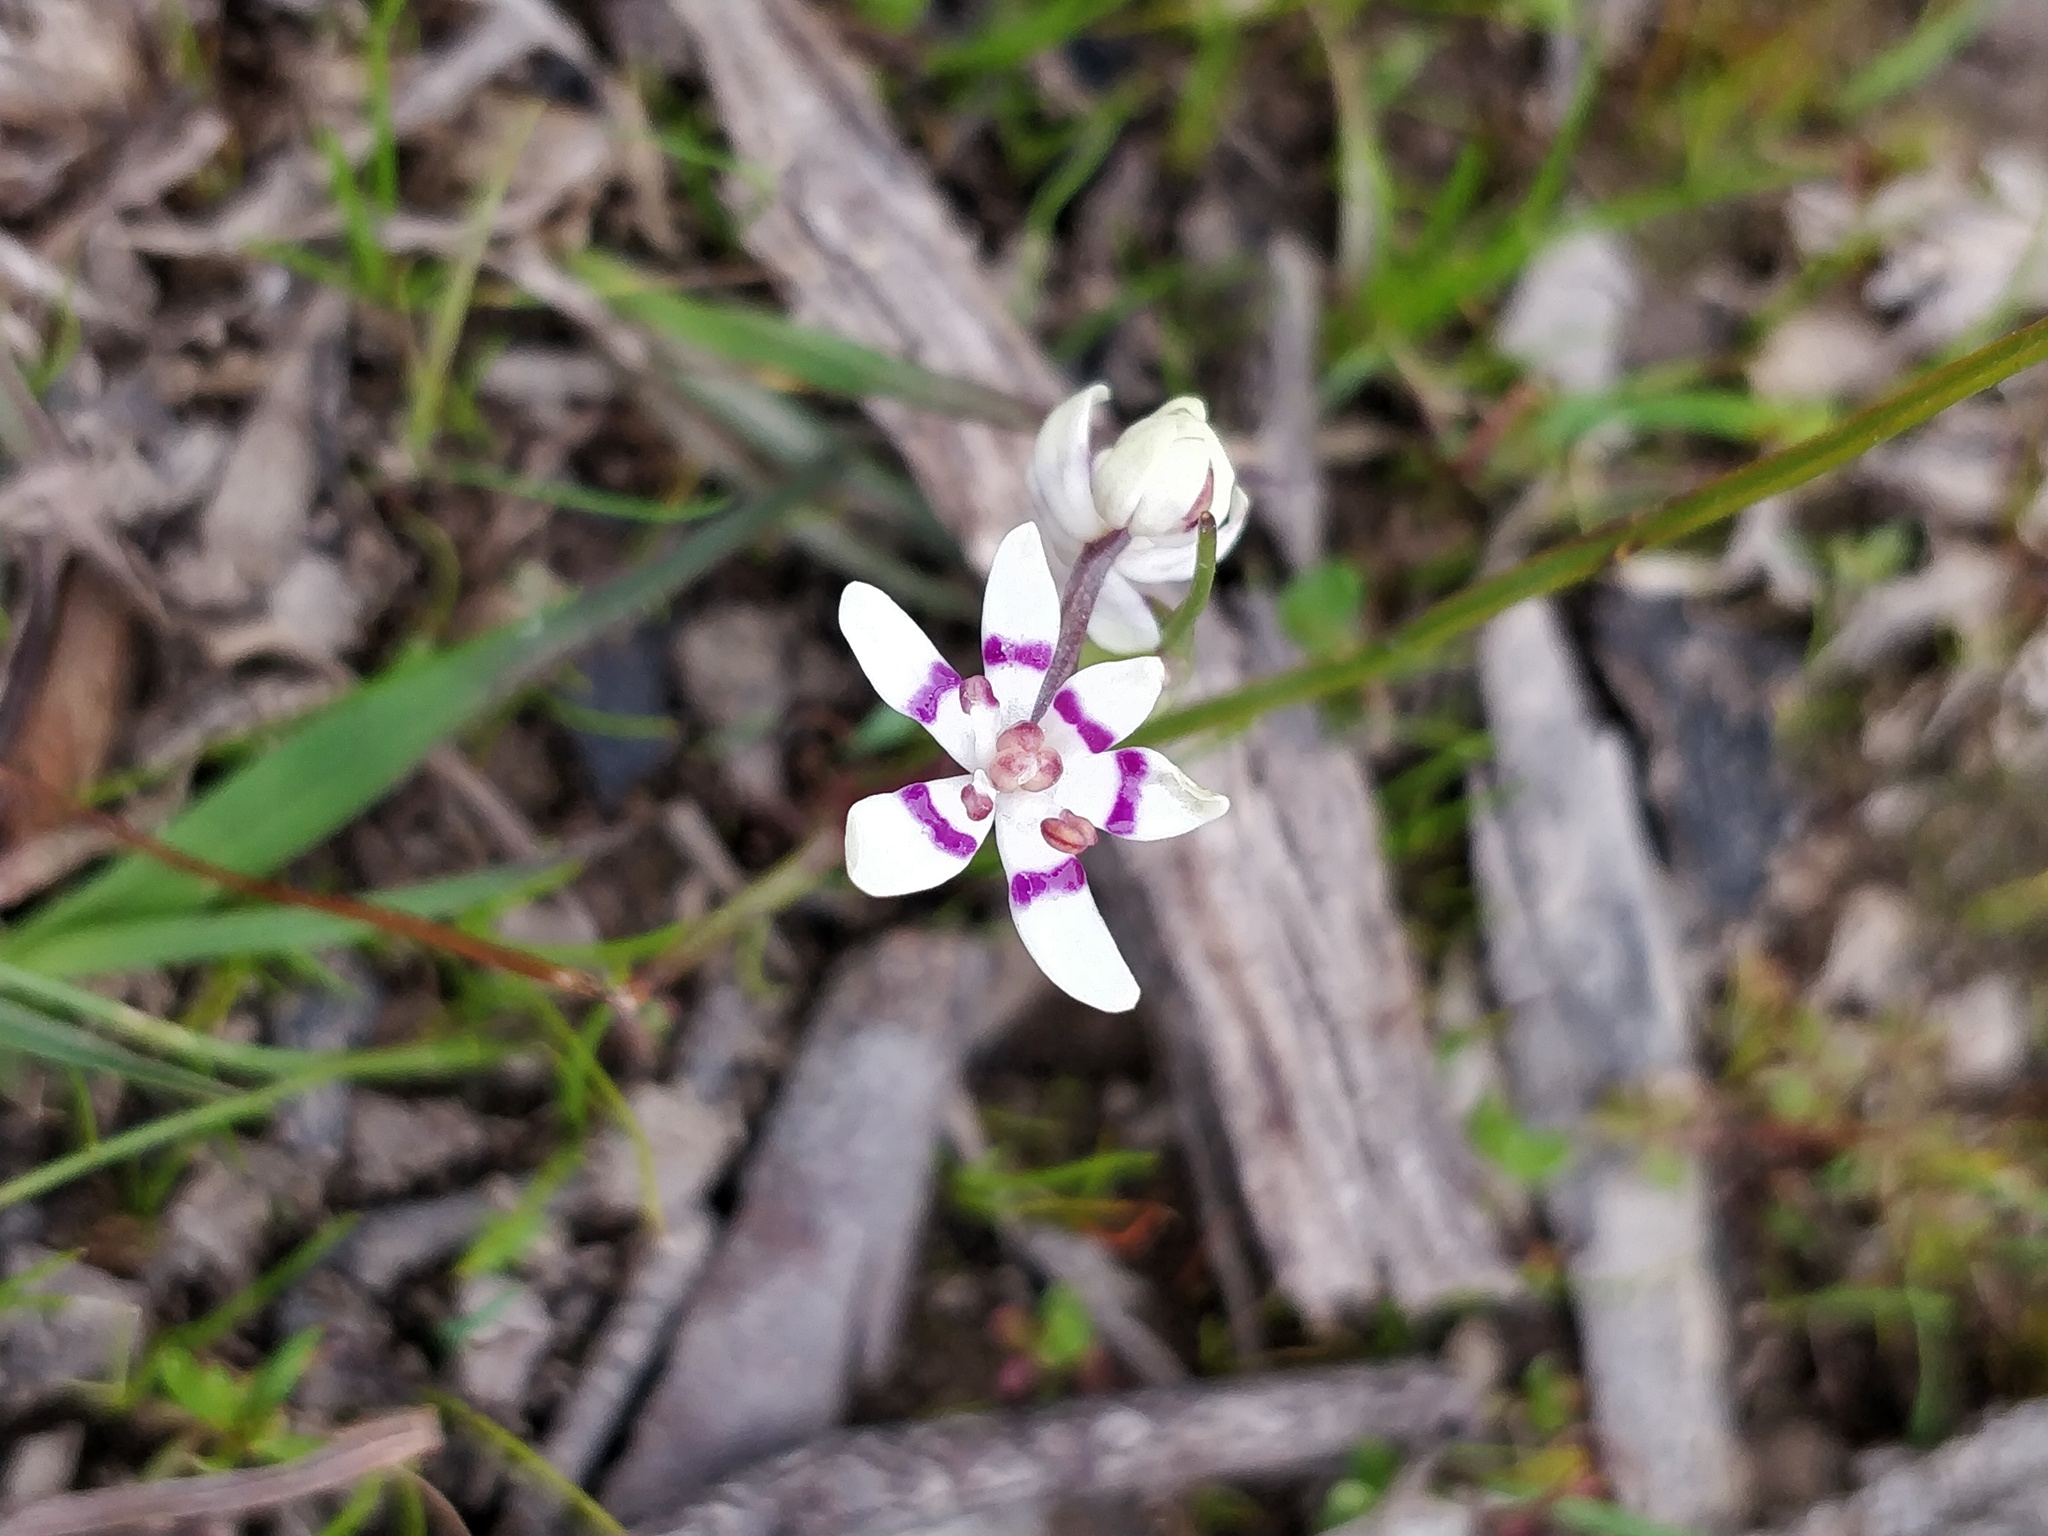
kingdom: Plantae
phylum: Tracheophyta
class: Liliopsida
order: Liliales
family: Colchicaceae
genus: Wurmbea
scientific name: Wurmbea dioica
